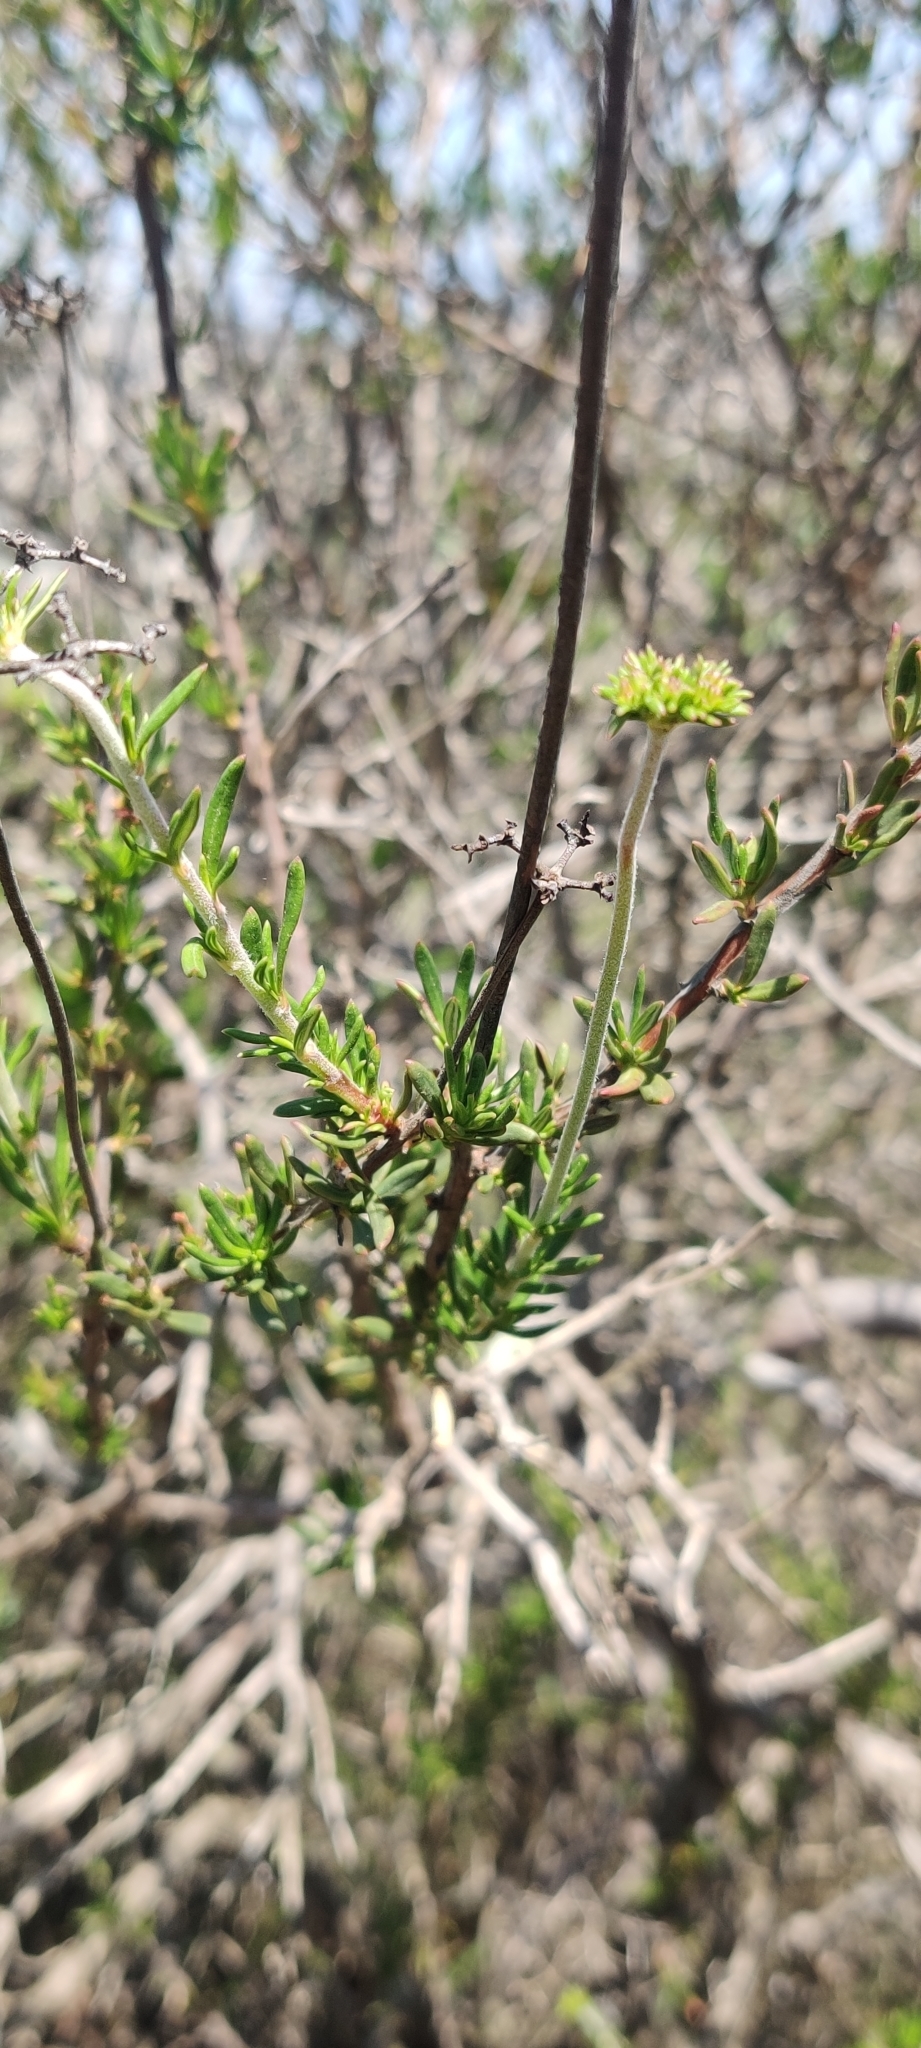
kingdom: Plantae
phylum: Tracheophyta
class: Magnoliopsida
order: Caryophyllales
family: Polygonaceae
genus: Eriogonum
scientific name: Eriogonum fasciculatum
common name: California wild buckwheat
